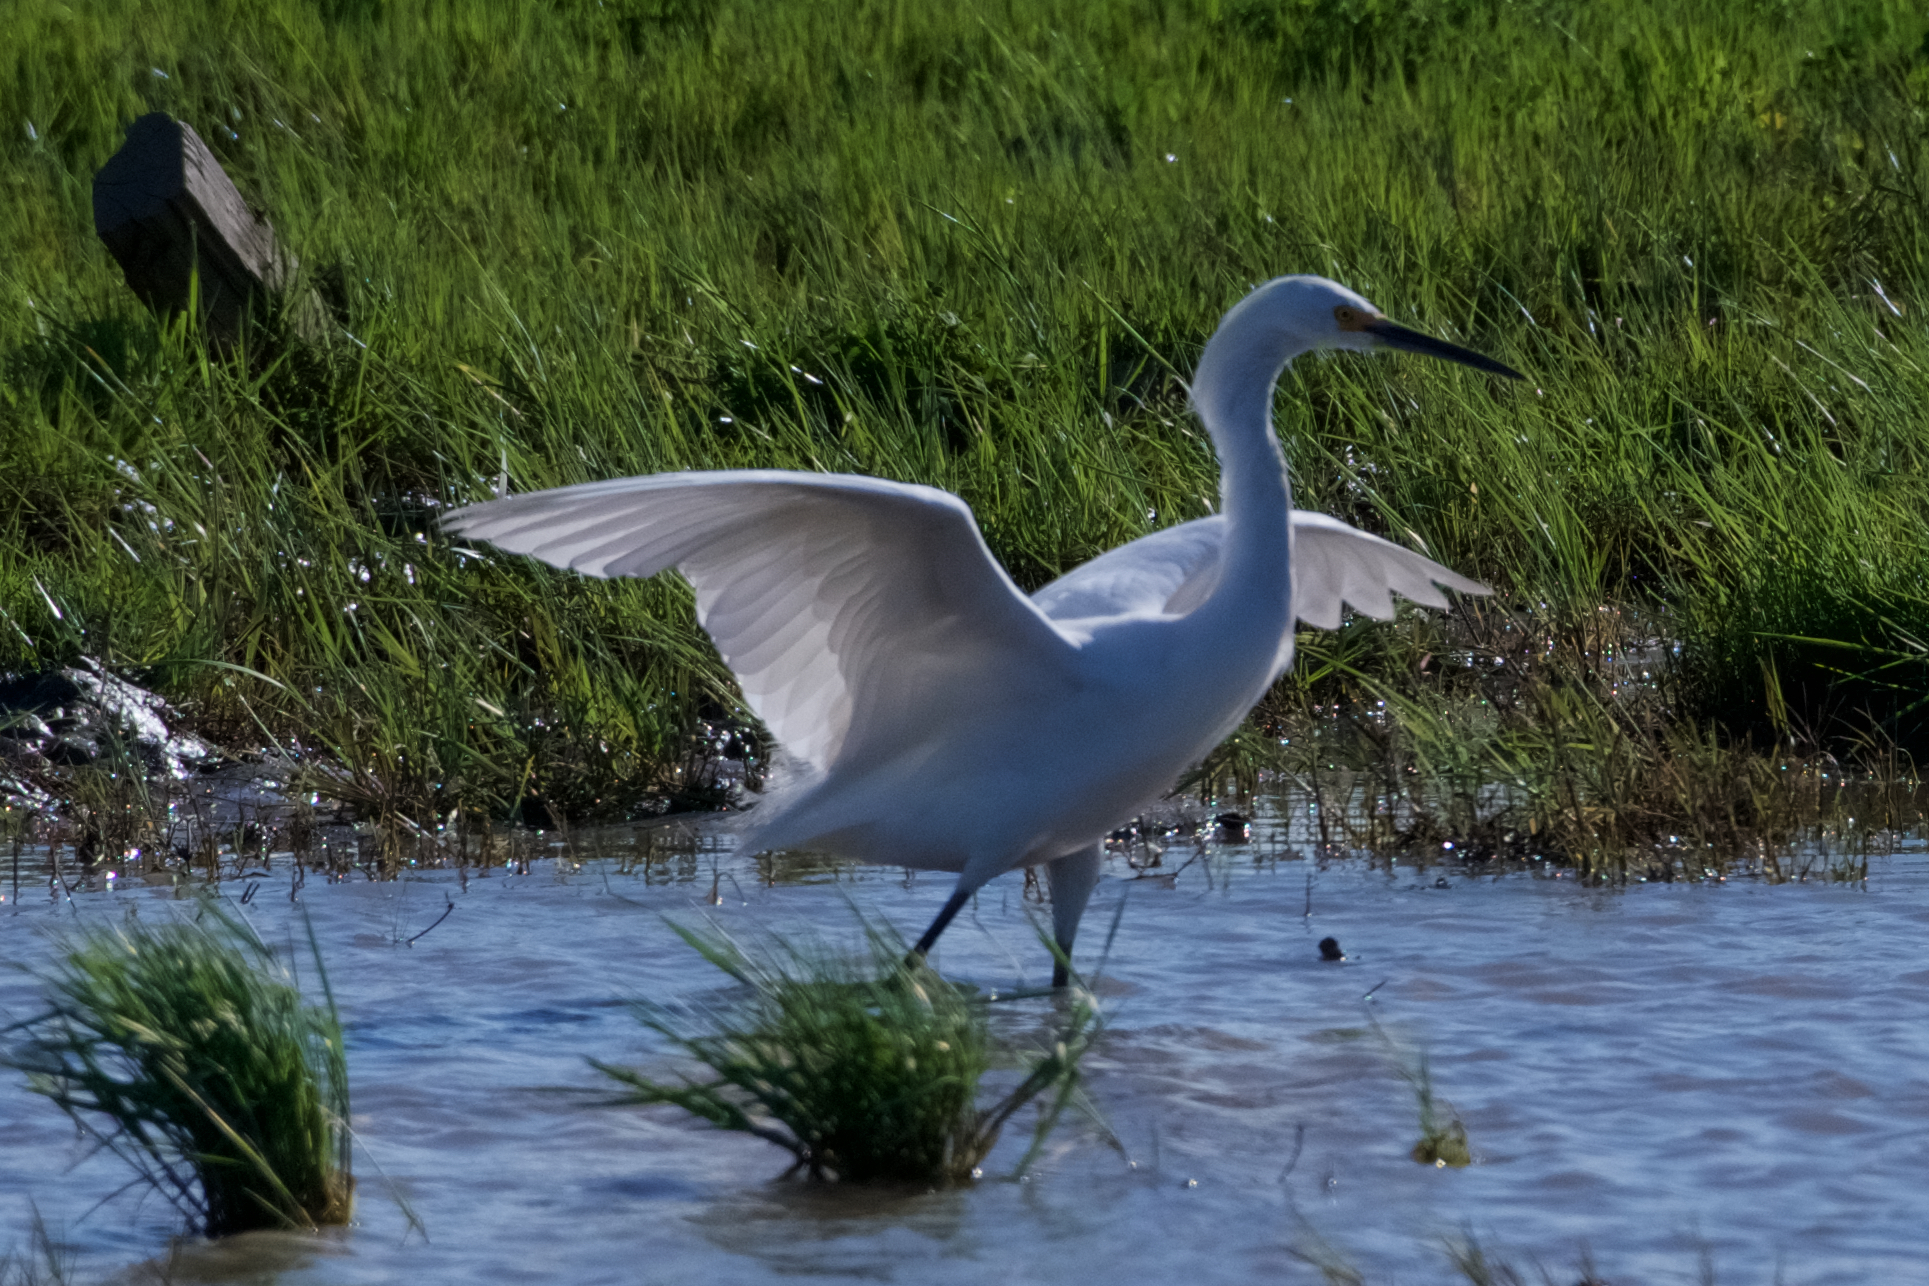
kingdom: Animalia
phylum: Chordata
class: Aves
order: Pelecaniformes
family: Ardeidae
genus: Egretta
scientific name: Egretta thula
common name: Snowy egret
